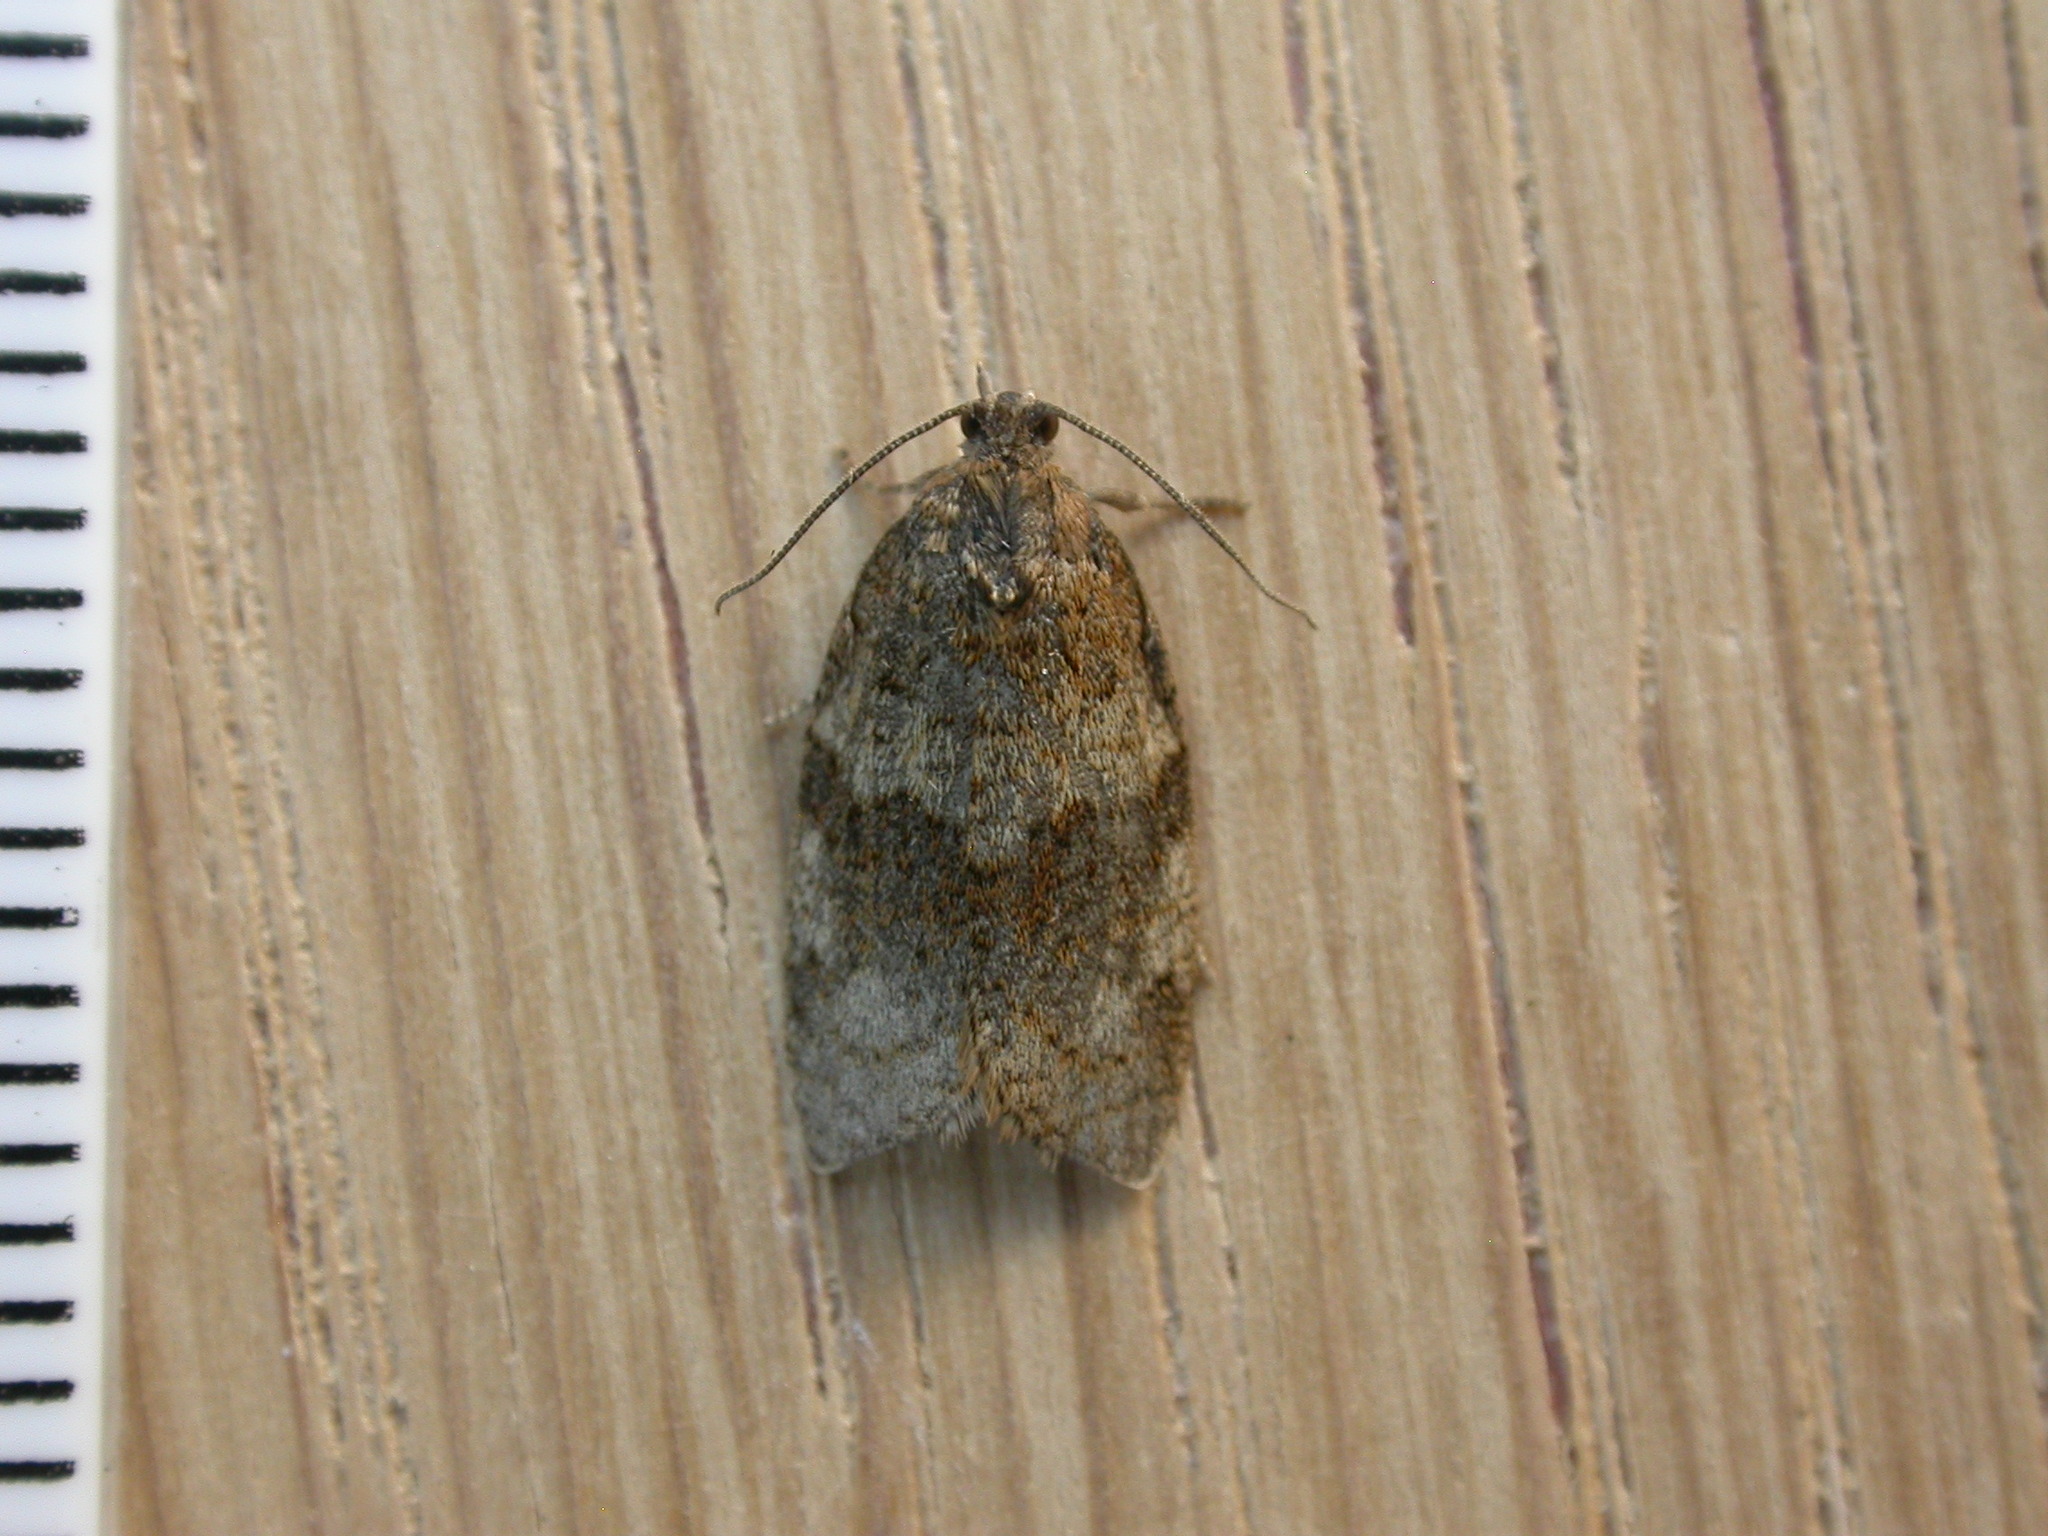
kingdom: Animalia
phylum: Arthropoda
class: Insecta
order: Lepidoptera
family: Tortricidae
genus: Syndemis
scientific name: Syndemis musculana
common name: Dark-barred twist
